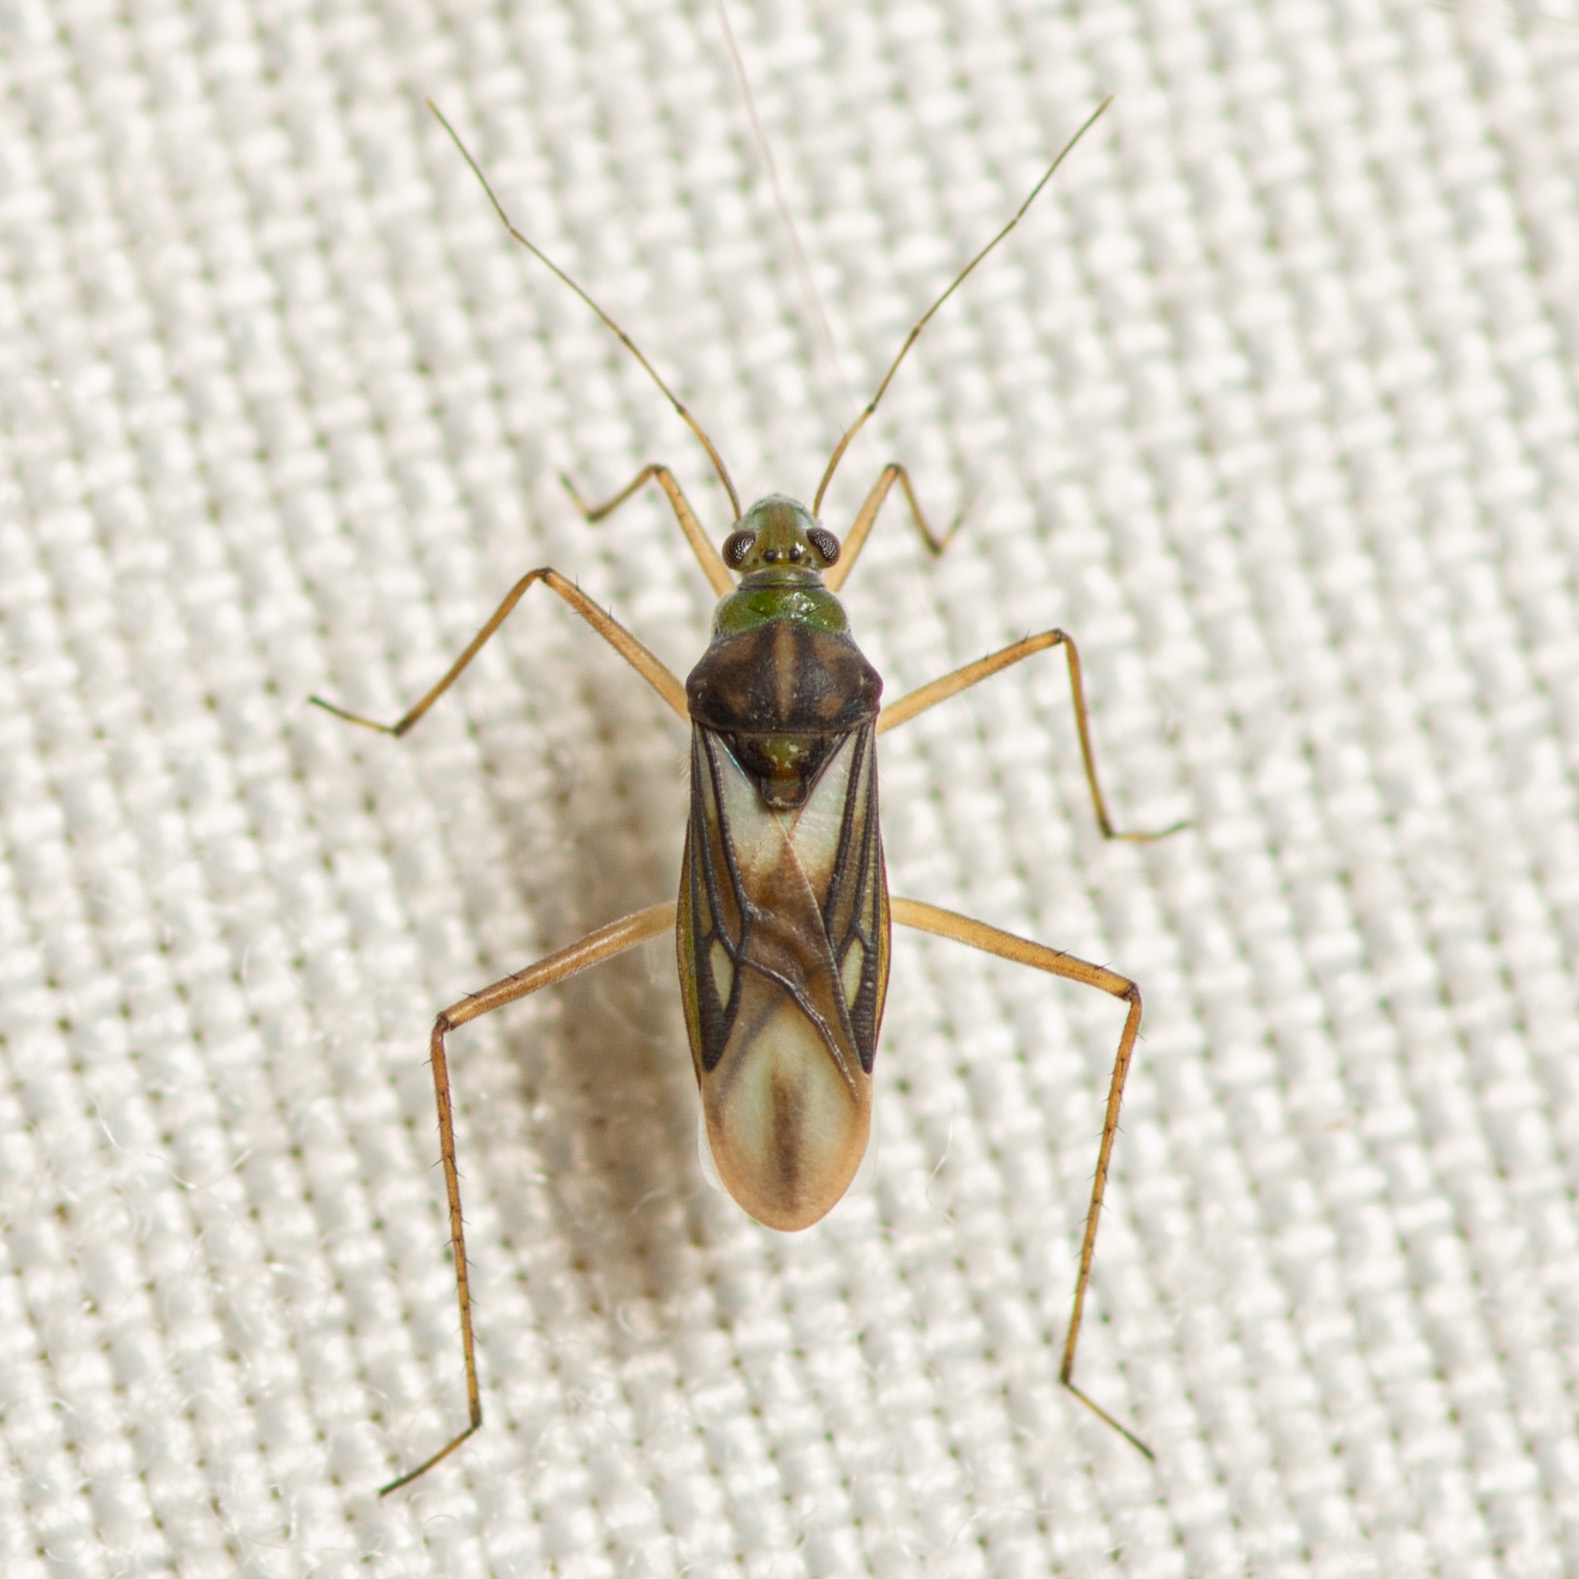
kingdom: Animalia
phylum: Arthropoda
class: Insecta
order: Hemiptera
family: Mesoveliidae
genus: Mesovelia
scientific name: Mesovelia mulsanti
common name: Water treaders
